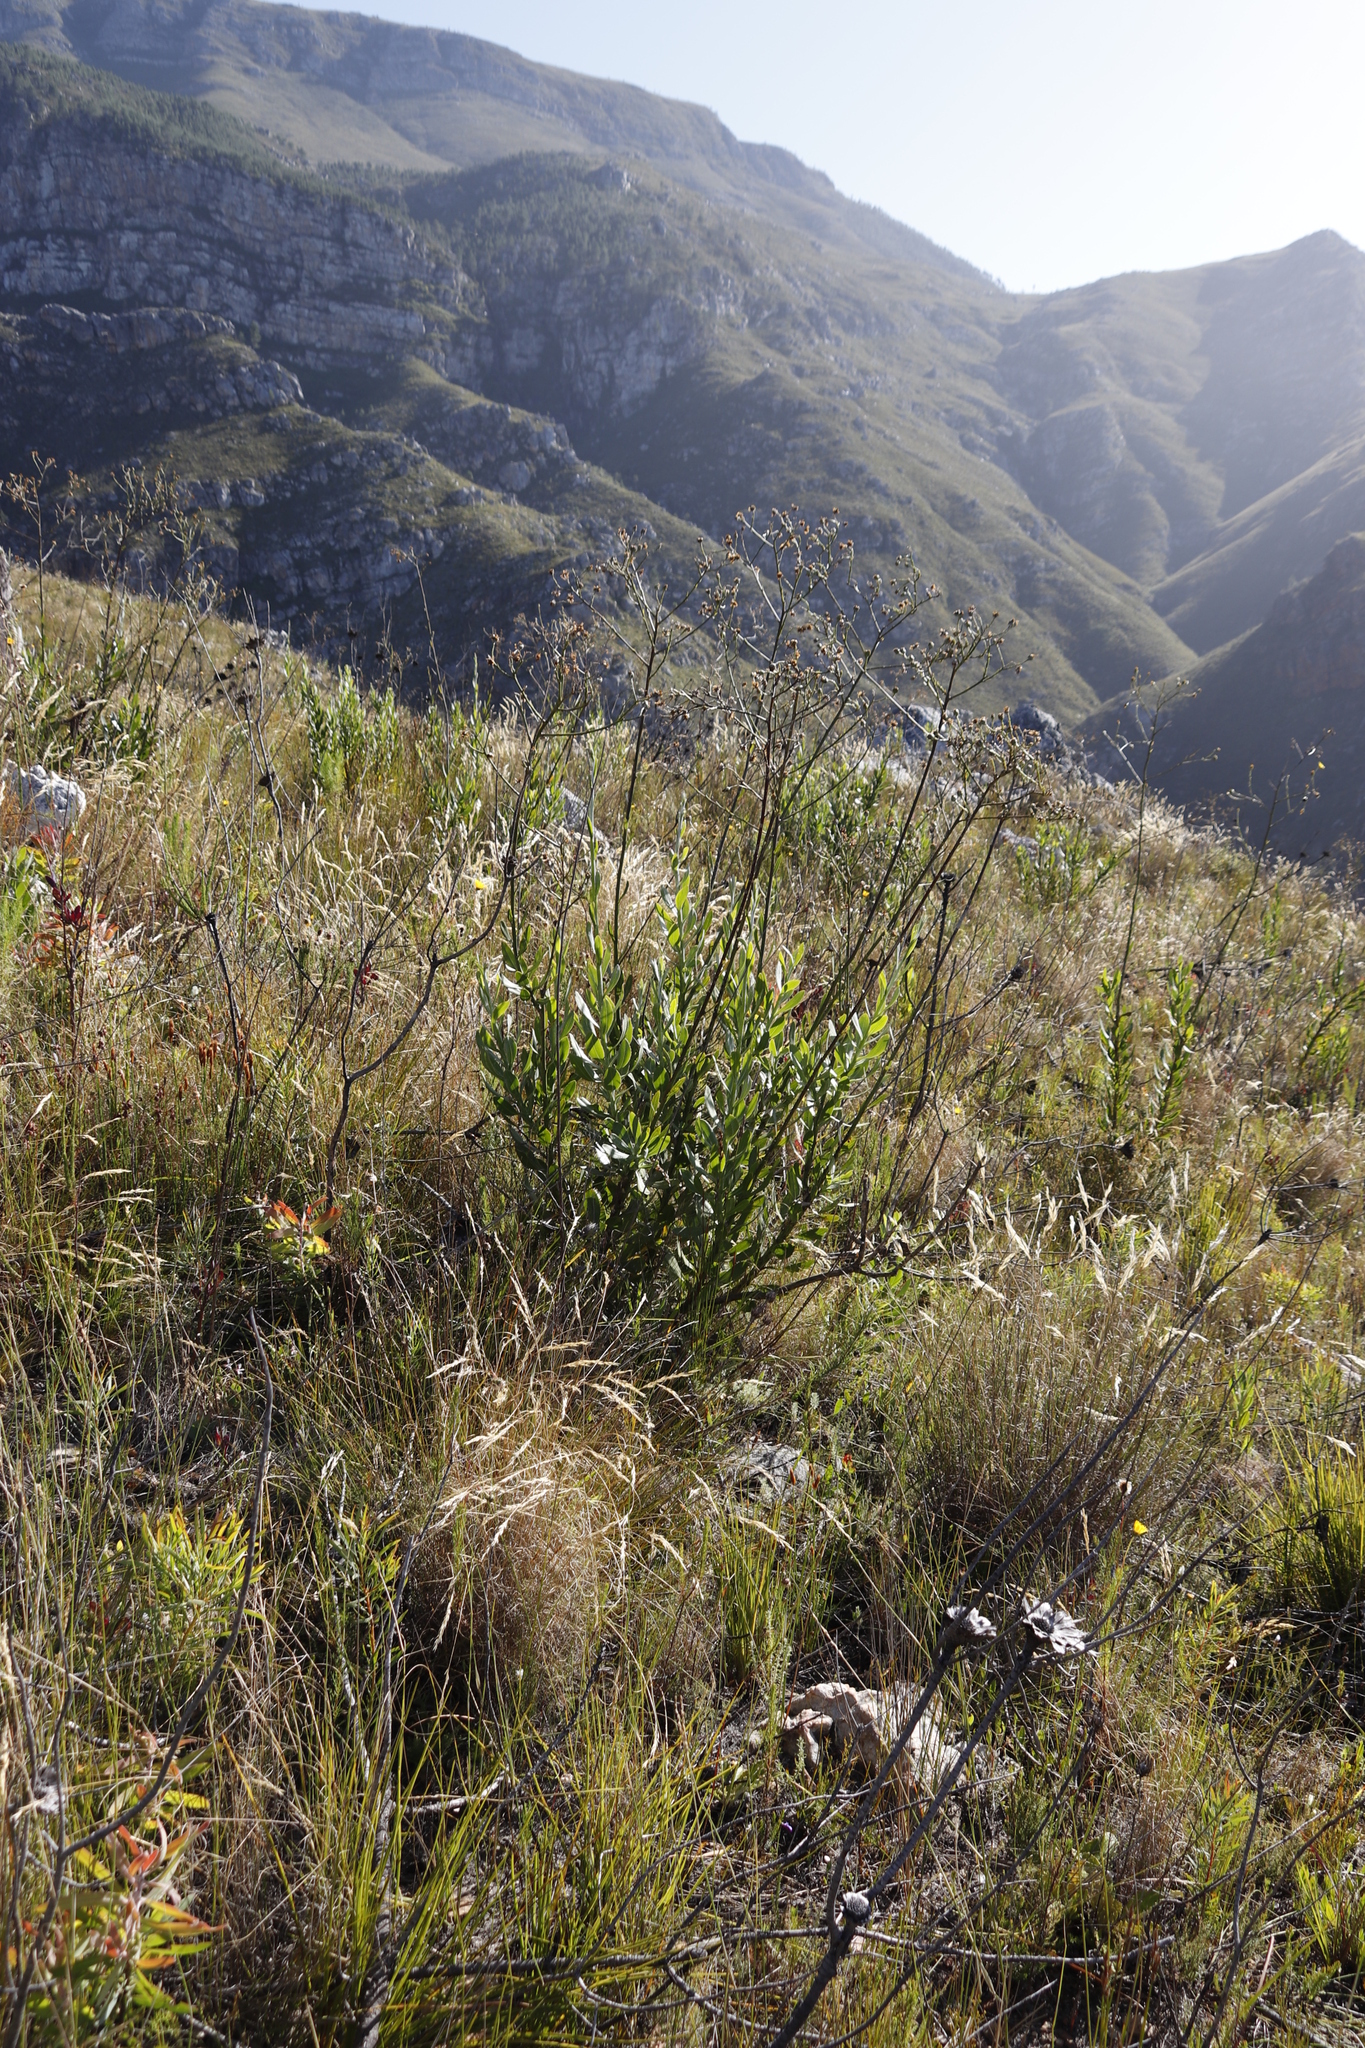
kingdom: Plantae
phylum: Tracheophyta
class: Magnoliopsida
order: Asterales
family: Asteraceae
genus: Osteospermum
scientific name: Osteospermum junceum
